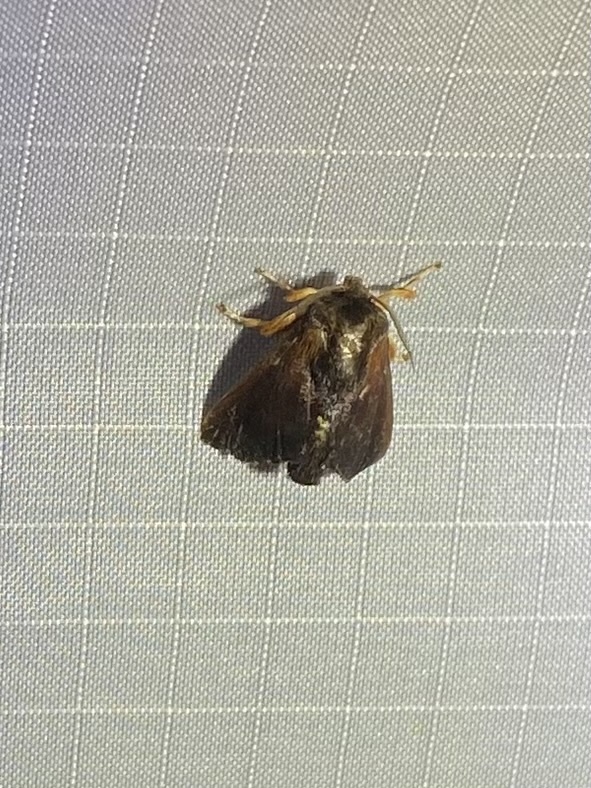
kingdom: Animalia
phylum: Arthropoda
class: Insecta
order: Lepidoptera
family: Limacodidae
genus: Isa
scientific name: Isa diana
